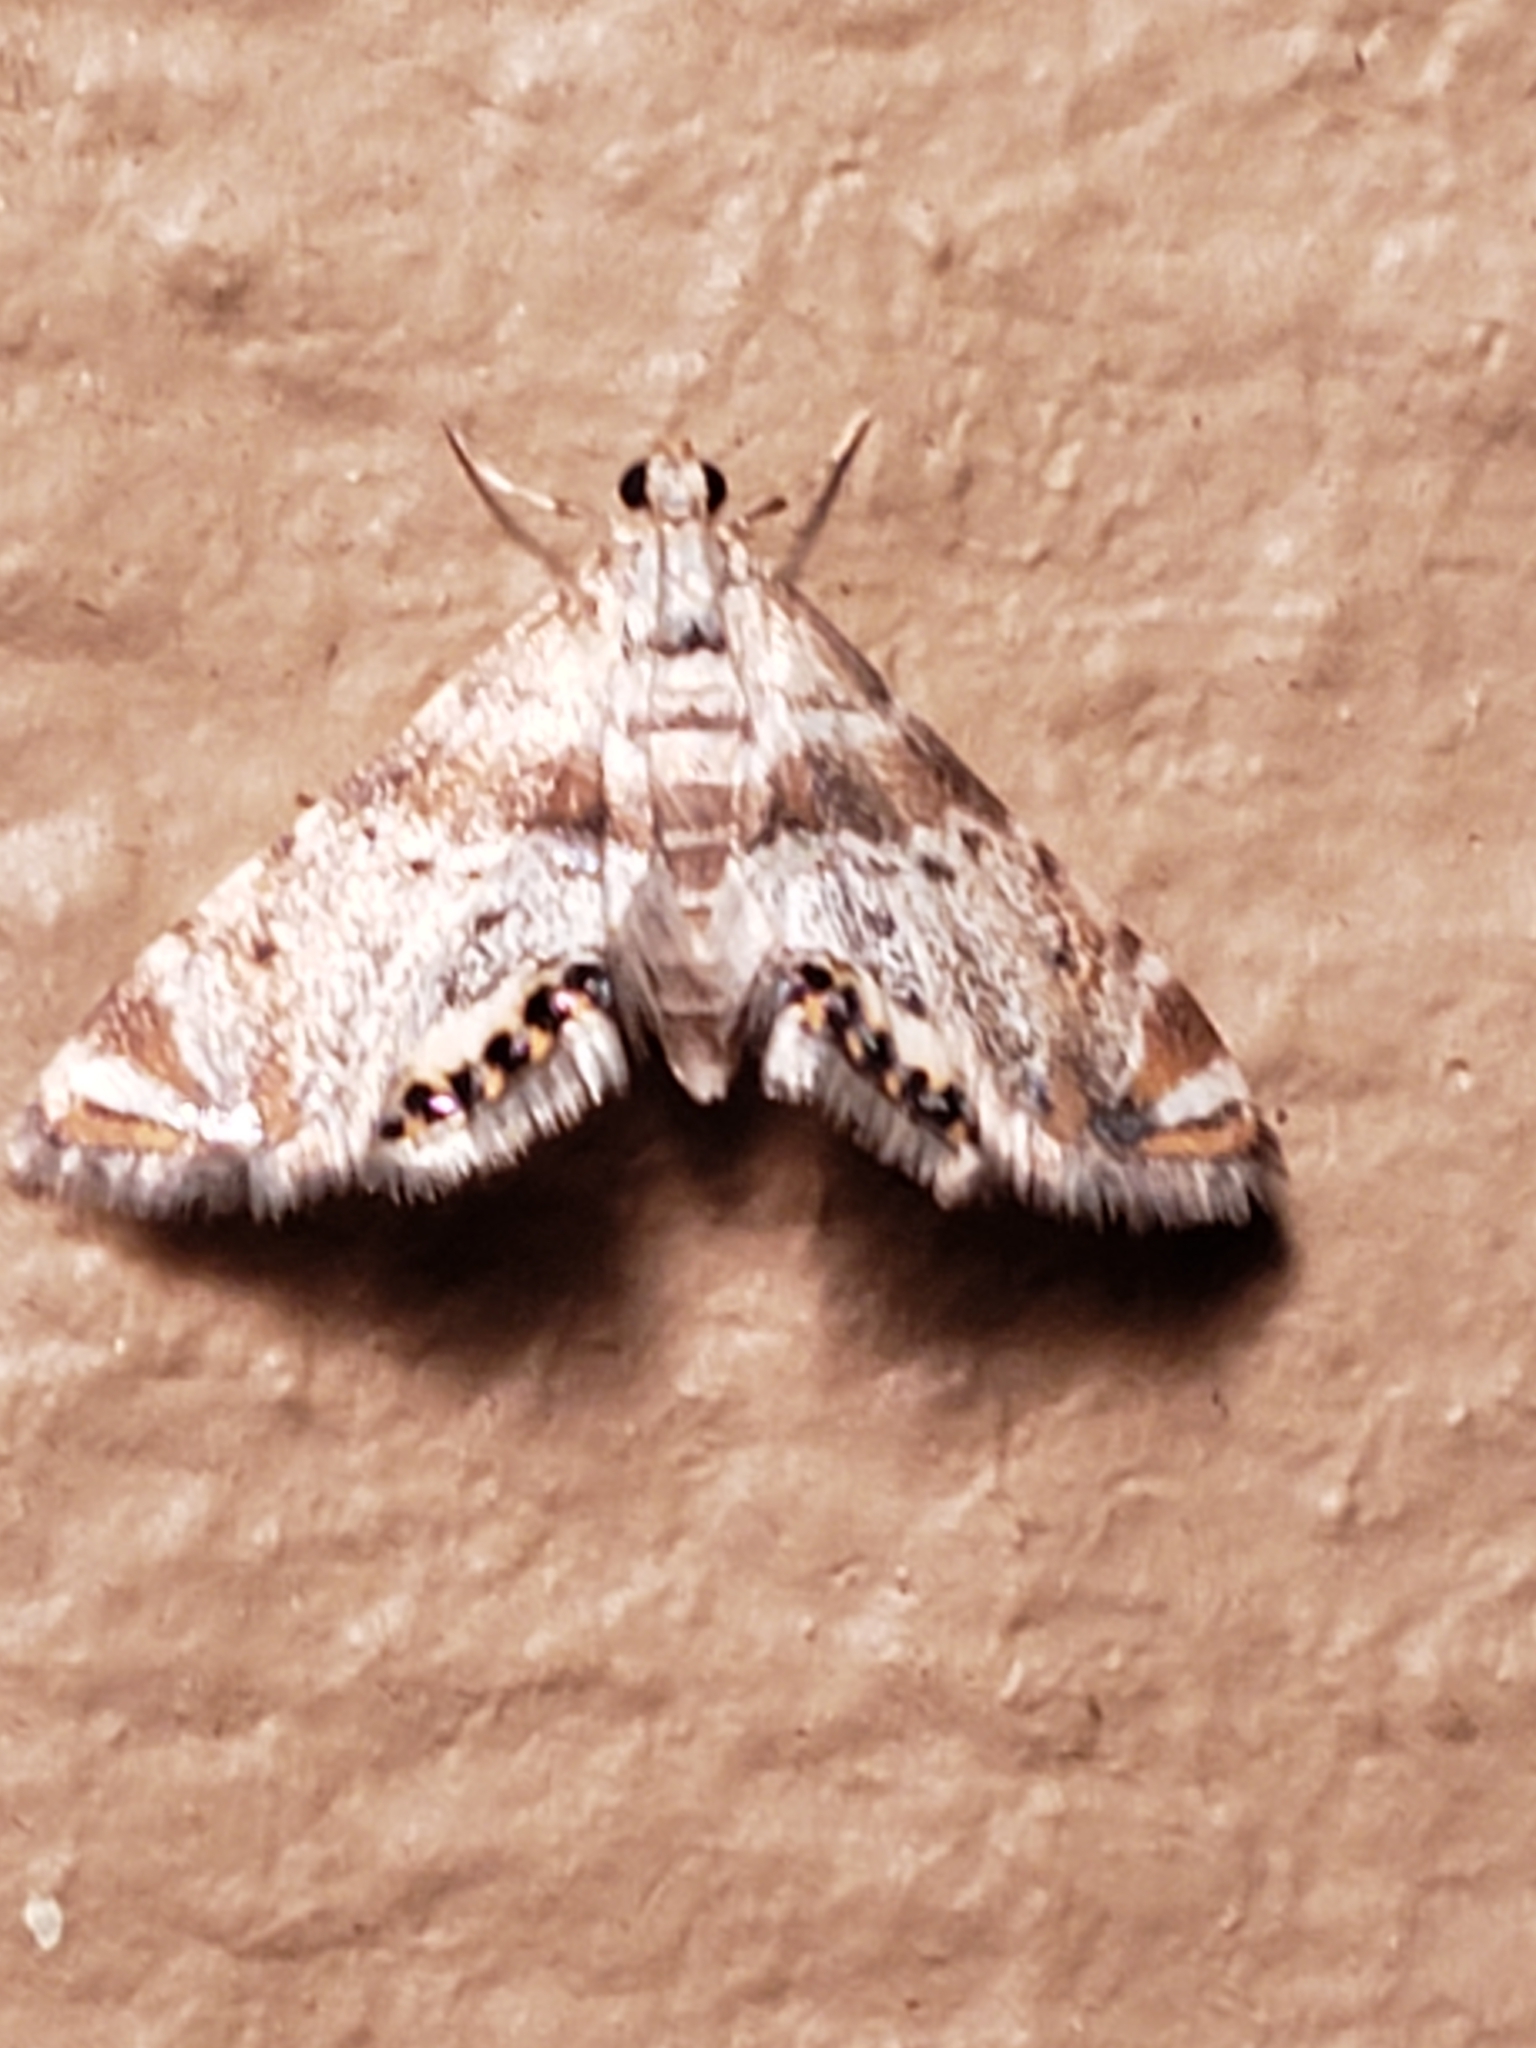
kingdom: Animalia
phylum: Arthropoda
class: Insecta
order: Lepidoptera
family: Crambidae
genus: Petrophila
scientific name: Petrophila fulicalis
